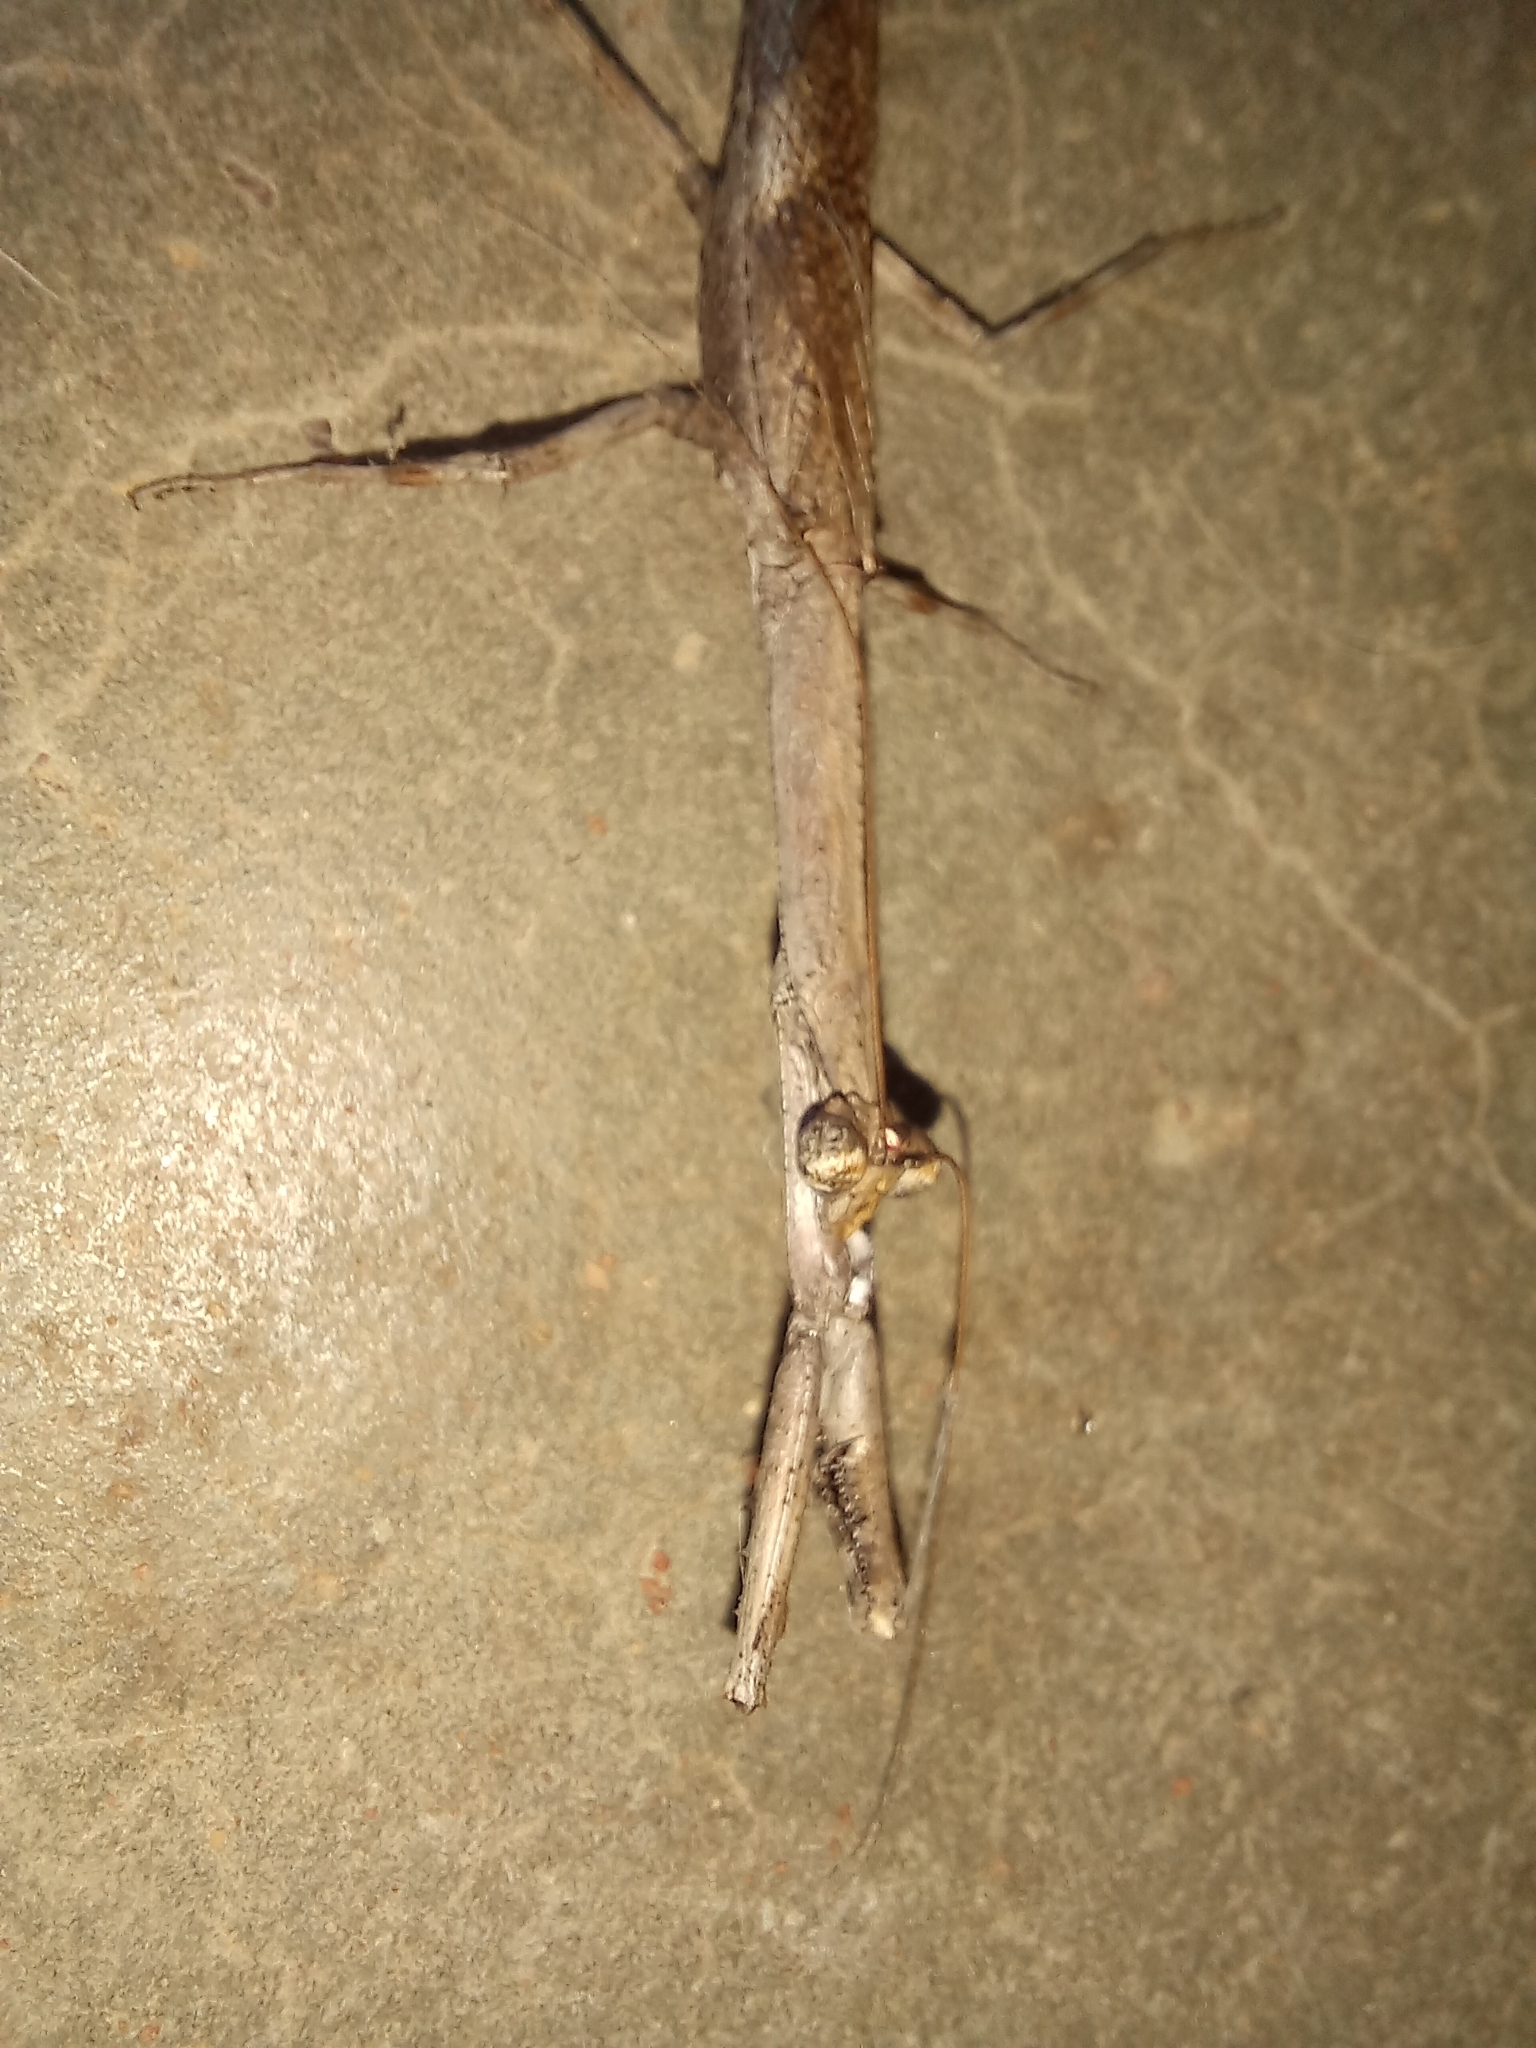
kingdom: Animalia
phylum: Arthropoda
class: Insecta
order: Mantodea
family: Deroplatyidae
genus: Popa
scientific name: Popa spurca
